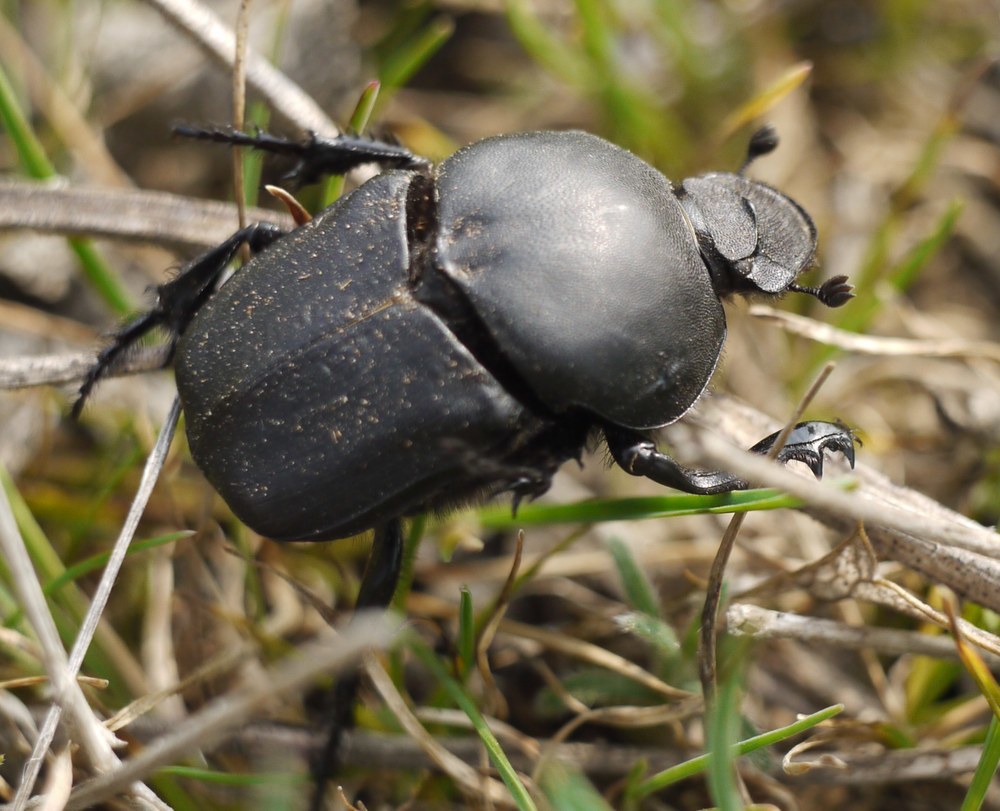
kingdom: Animalia
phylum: Arthropoda
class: Insecta
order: Coleoptera
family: Scarabaeidae
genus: Onitis
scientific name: Onitis damoetas
